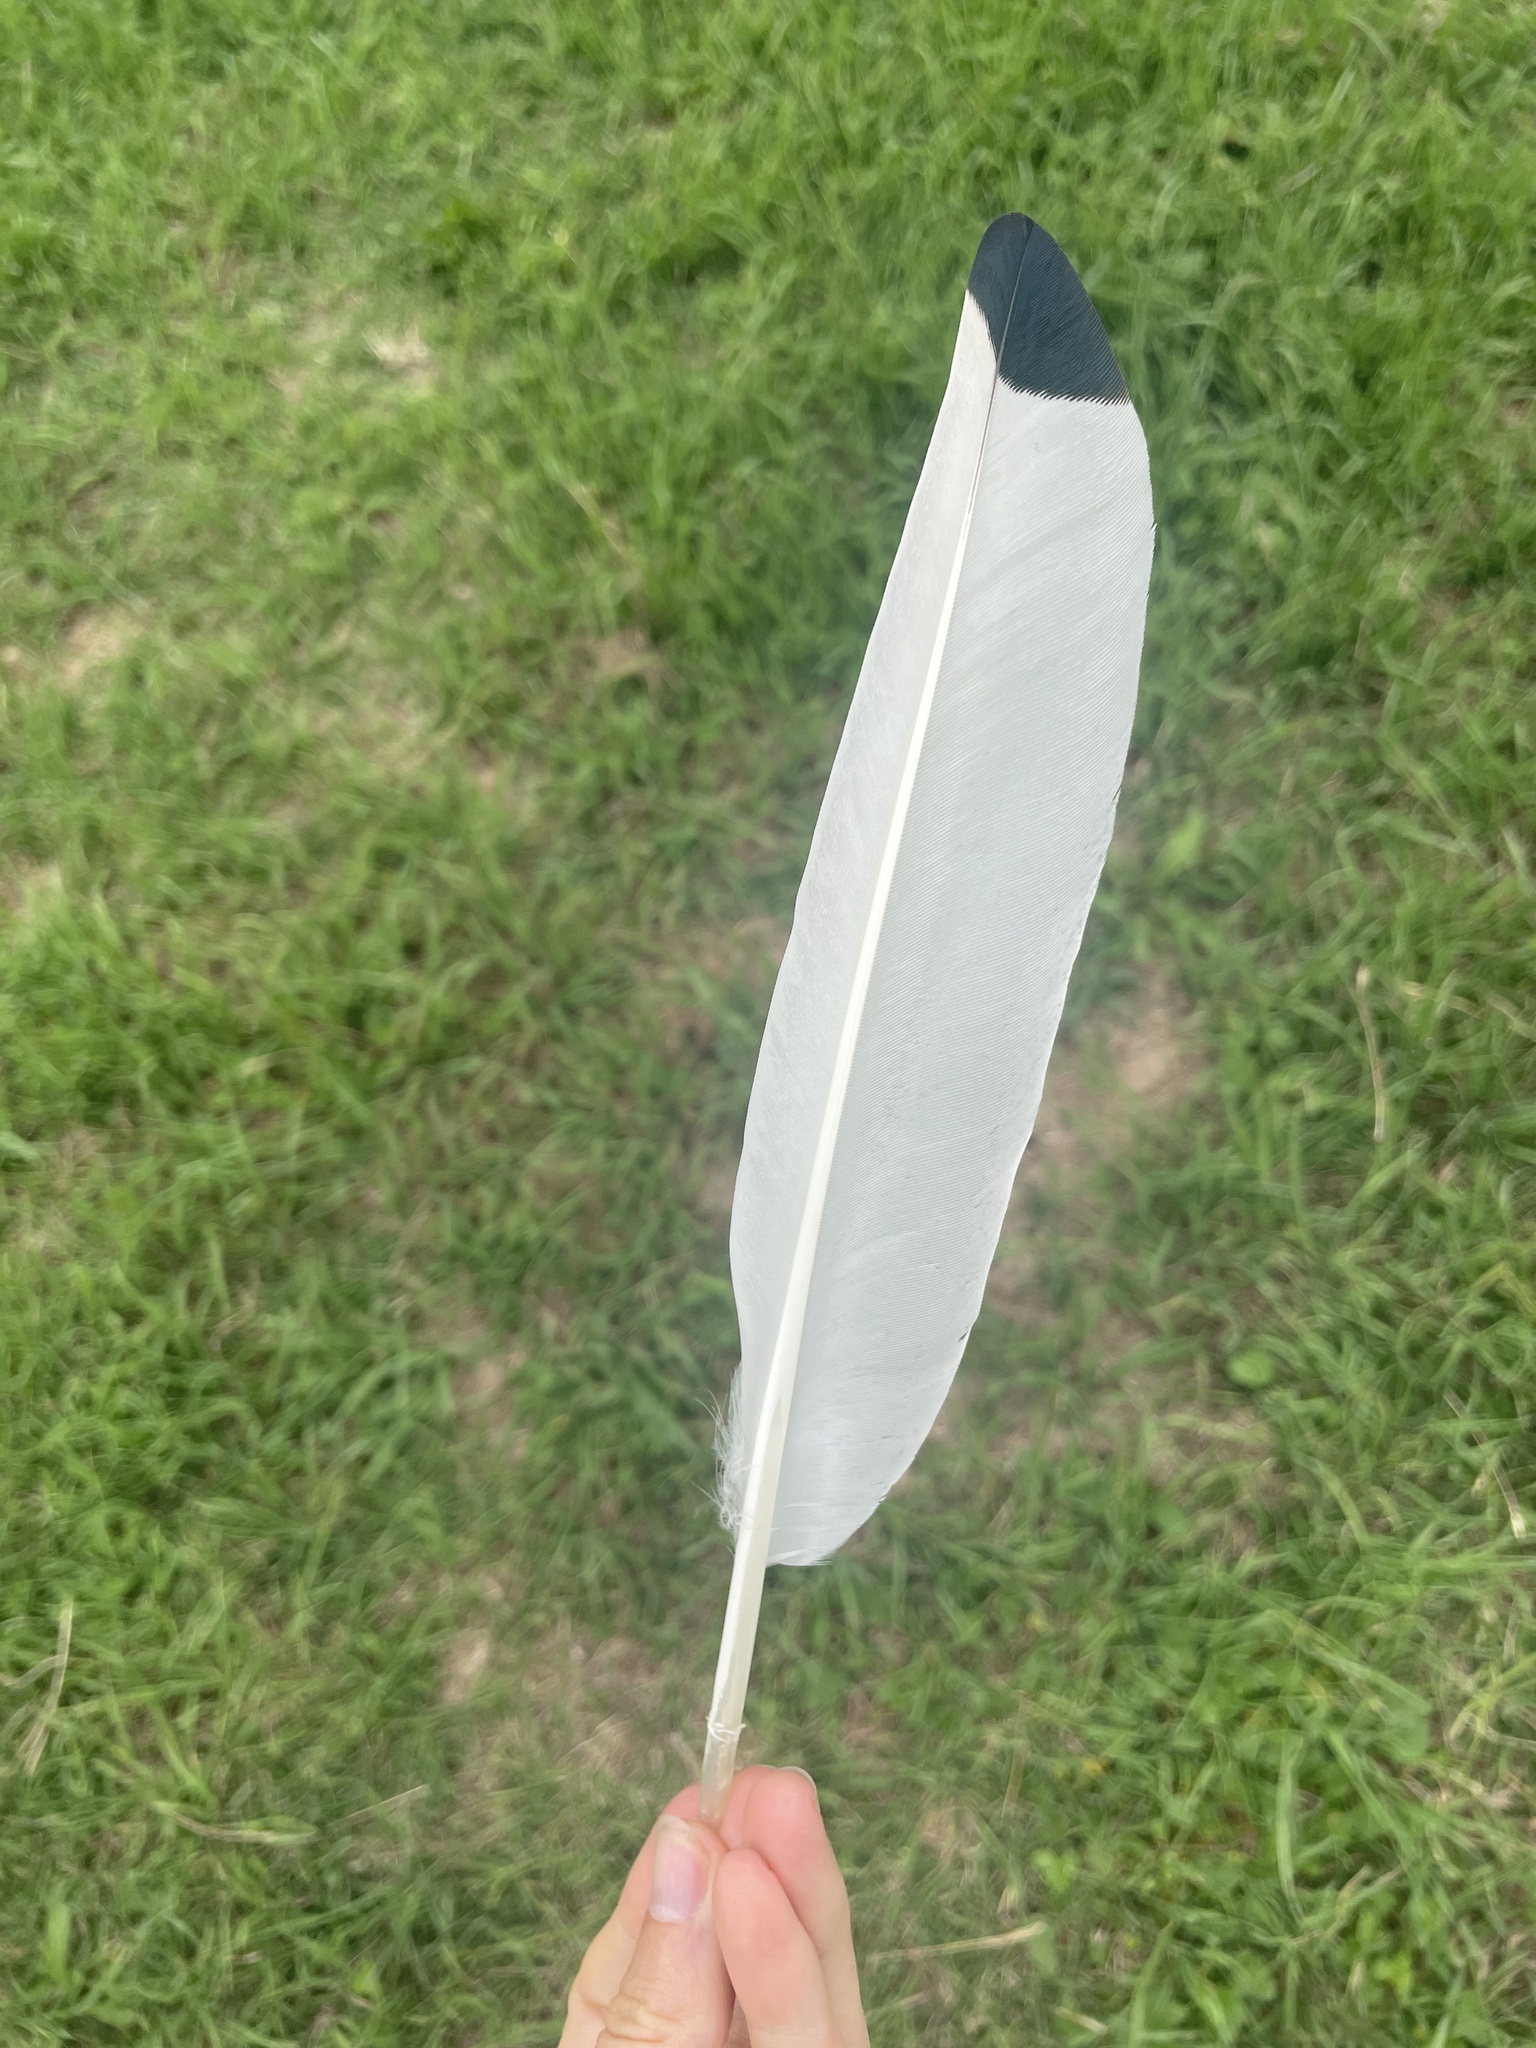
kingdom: Animalia
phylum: Chordata
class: Aves
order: Pelecaniformes
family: Threskiornithidae
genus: Threskiornis
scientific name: Threskiornis molucca
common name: Australian white ibis
